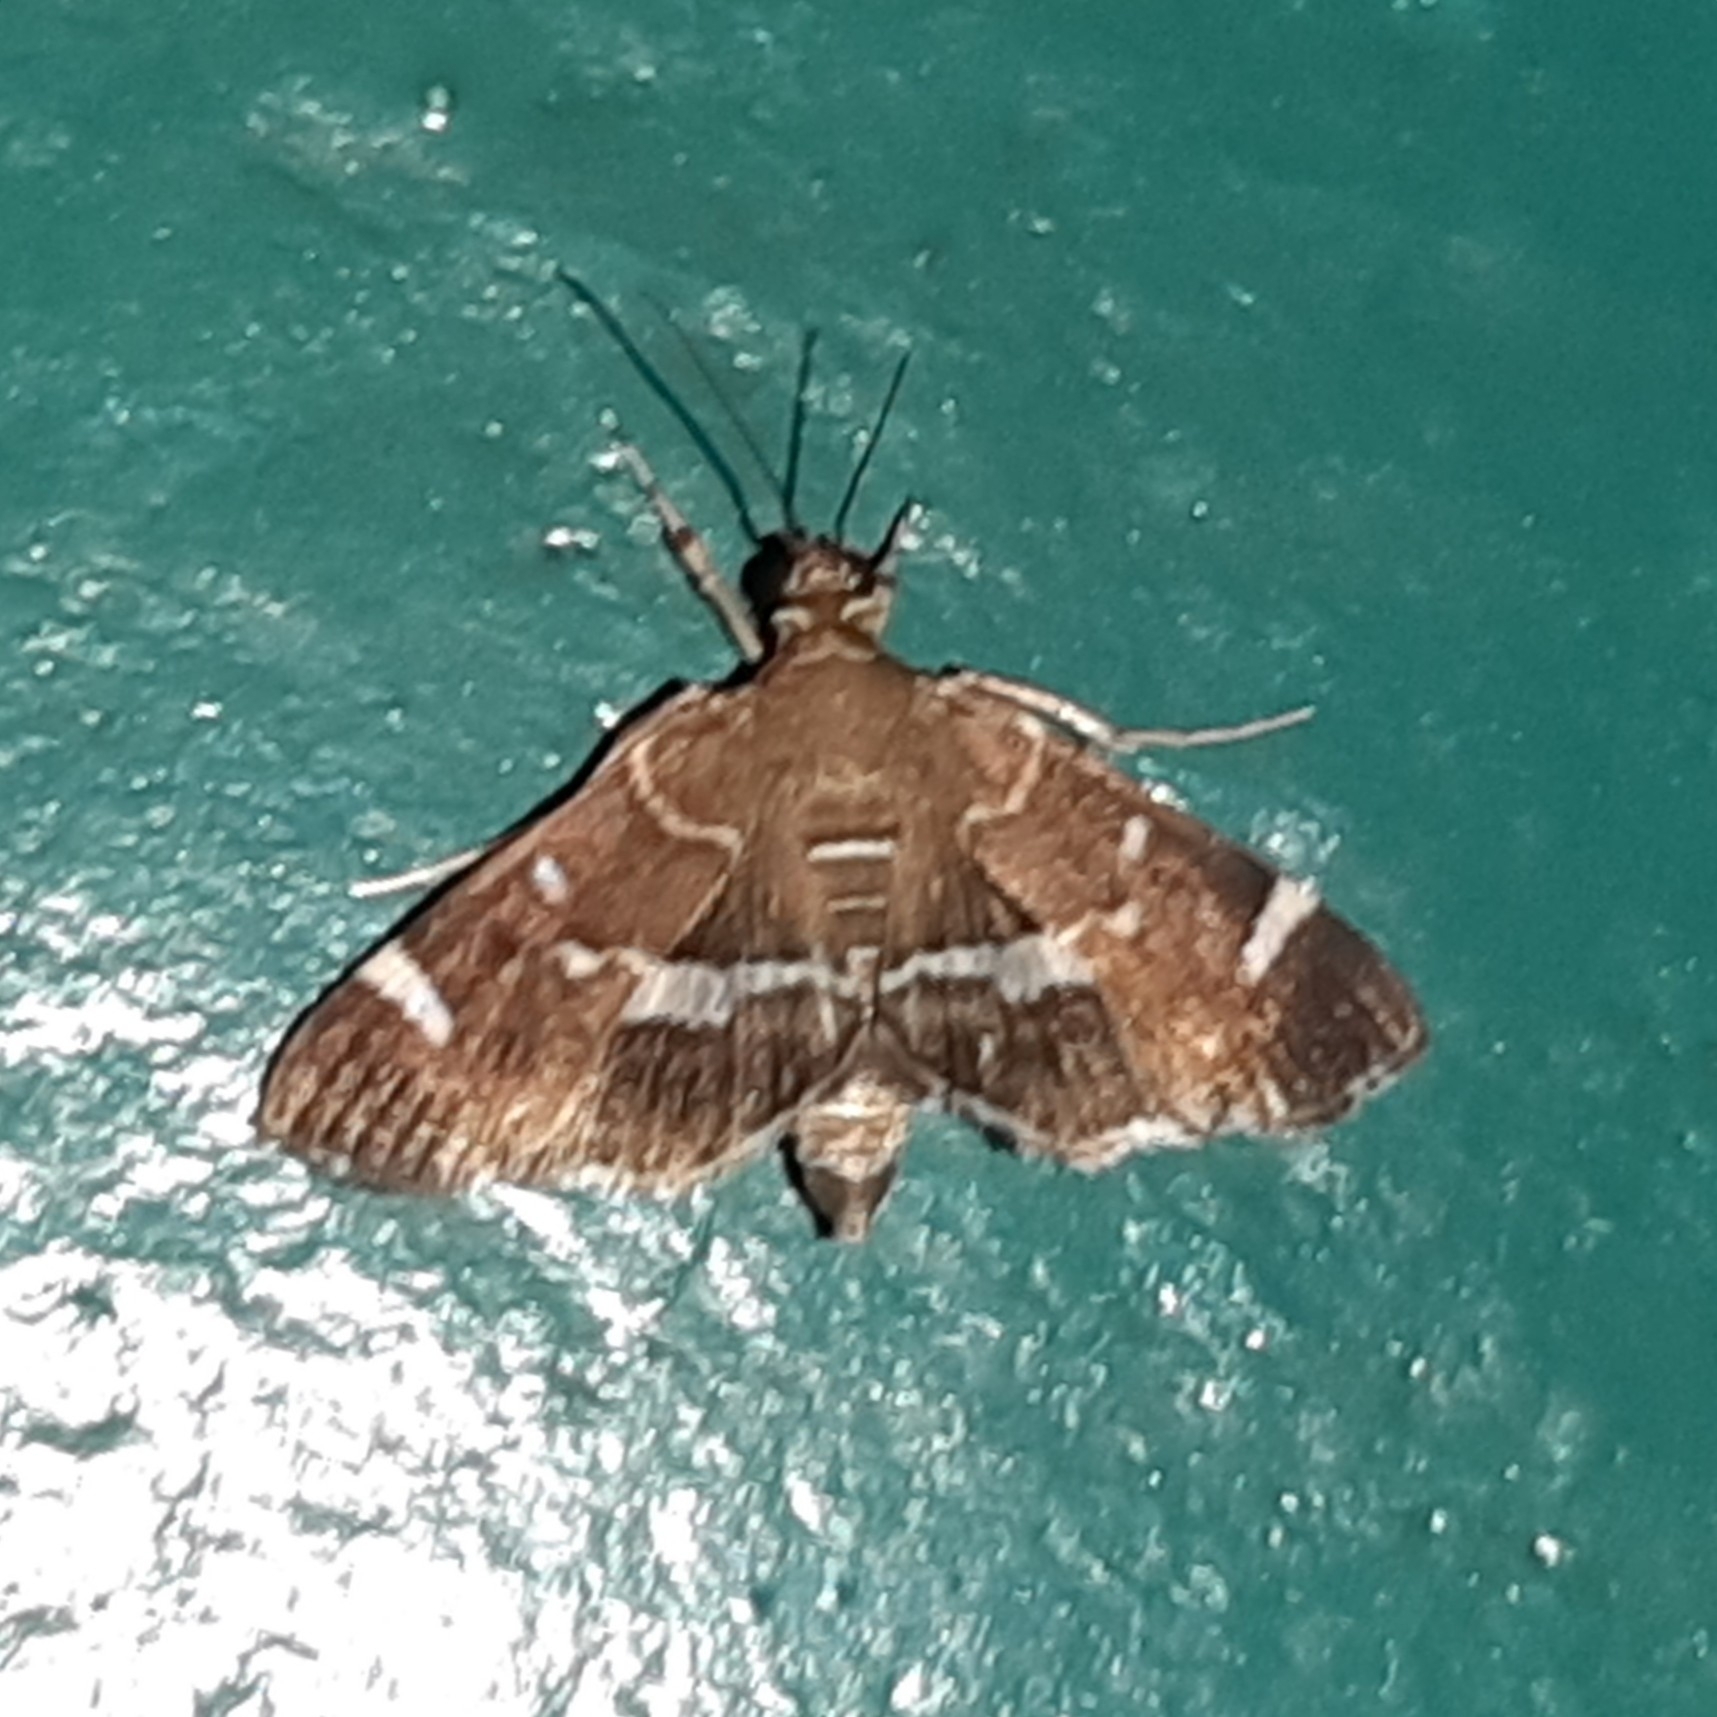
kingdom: Animalia
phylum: Arthropoda
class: Insecta
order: Lepidoptera
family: Crambidae
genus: Hymenia
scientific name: Hymenia perspectalis
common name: Spotted beet webworm
